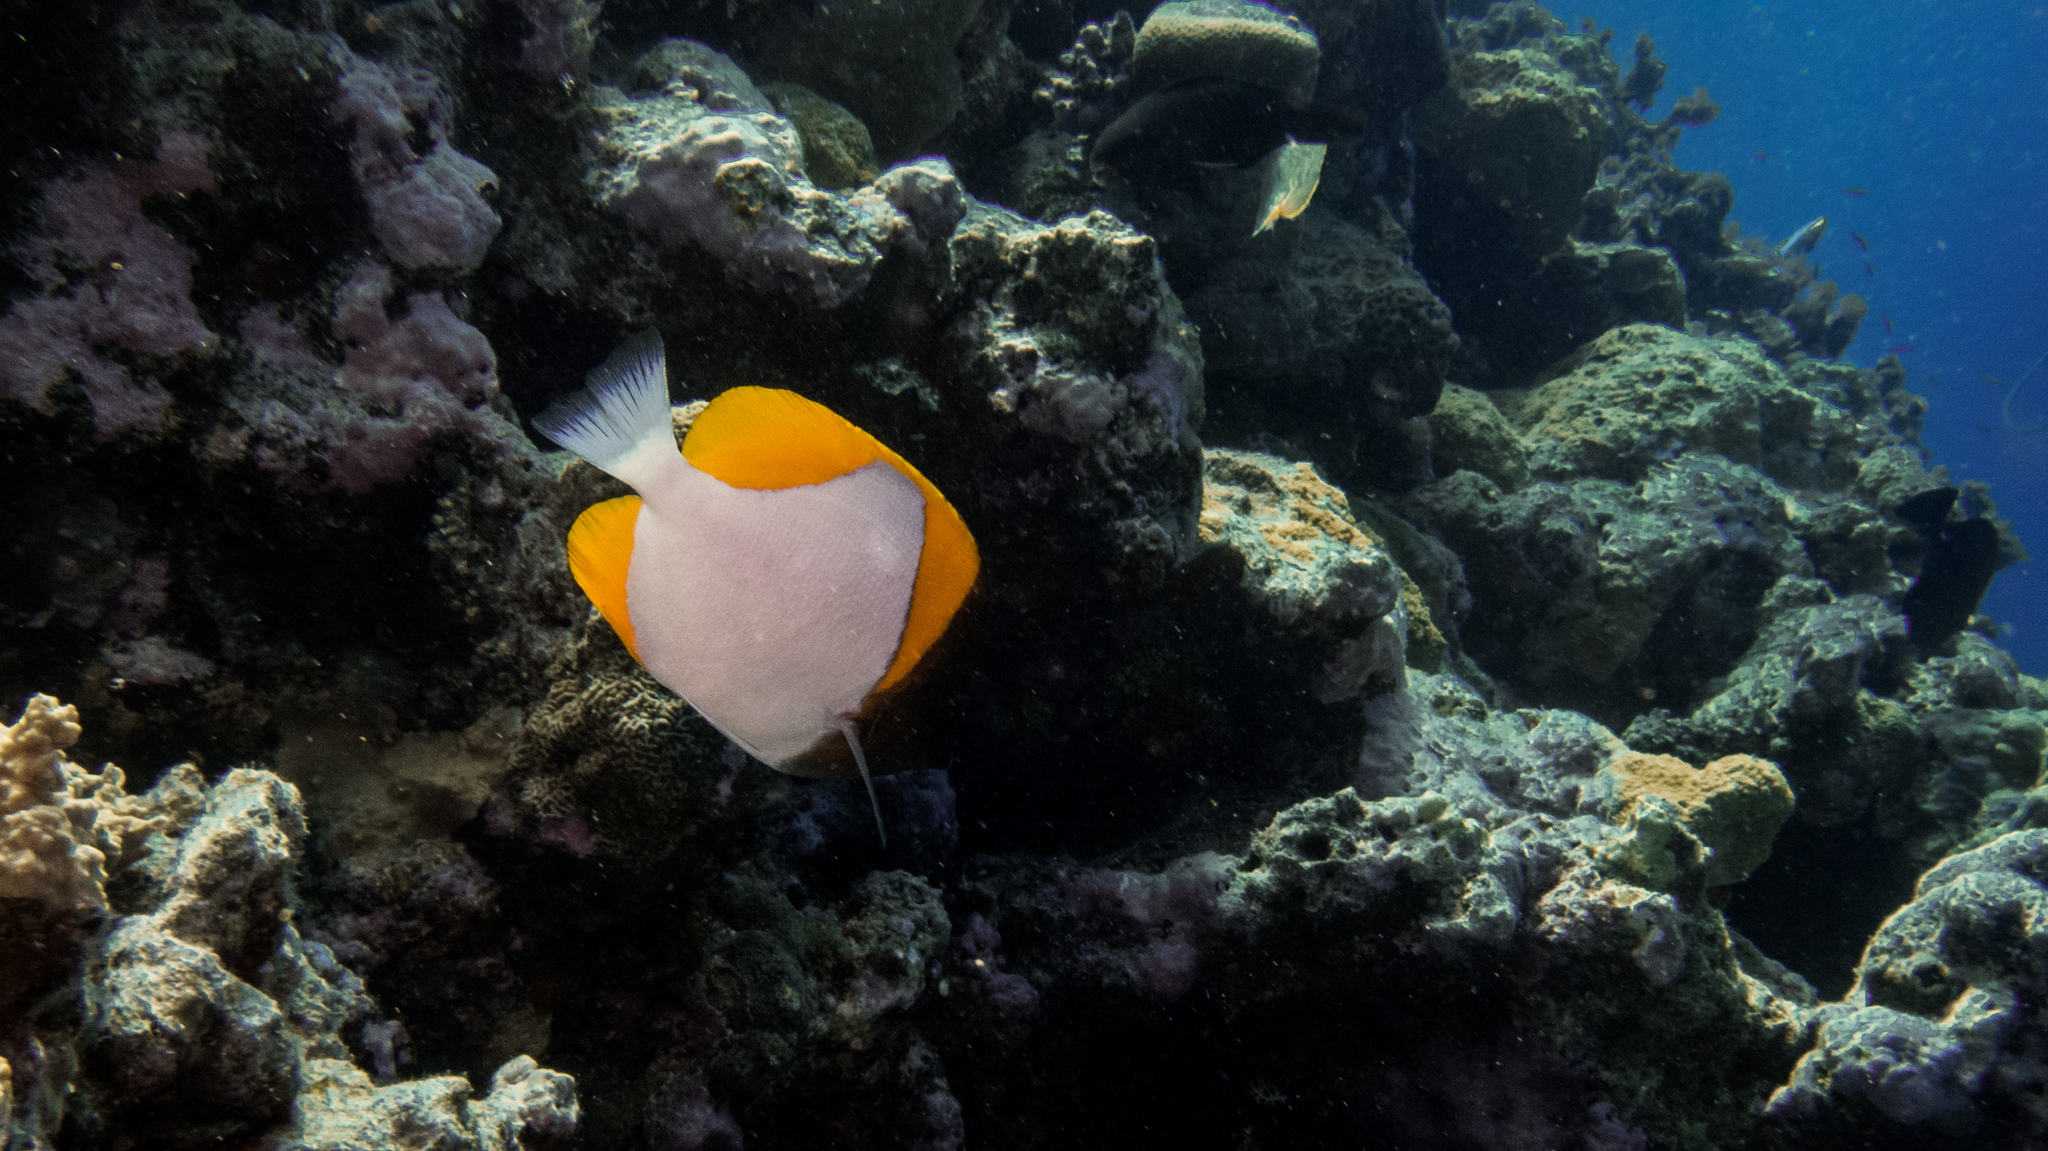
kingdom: Animalia
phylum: Chordata
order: Perciformes
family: Chaetodontidae
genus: Hemitaurichthys
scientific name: Hemitaurichthys polylepis
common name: Brushytoothed butterflyfish
